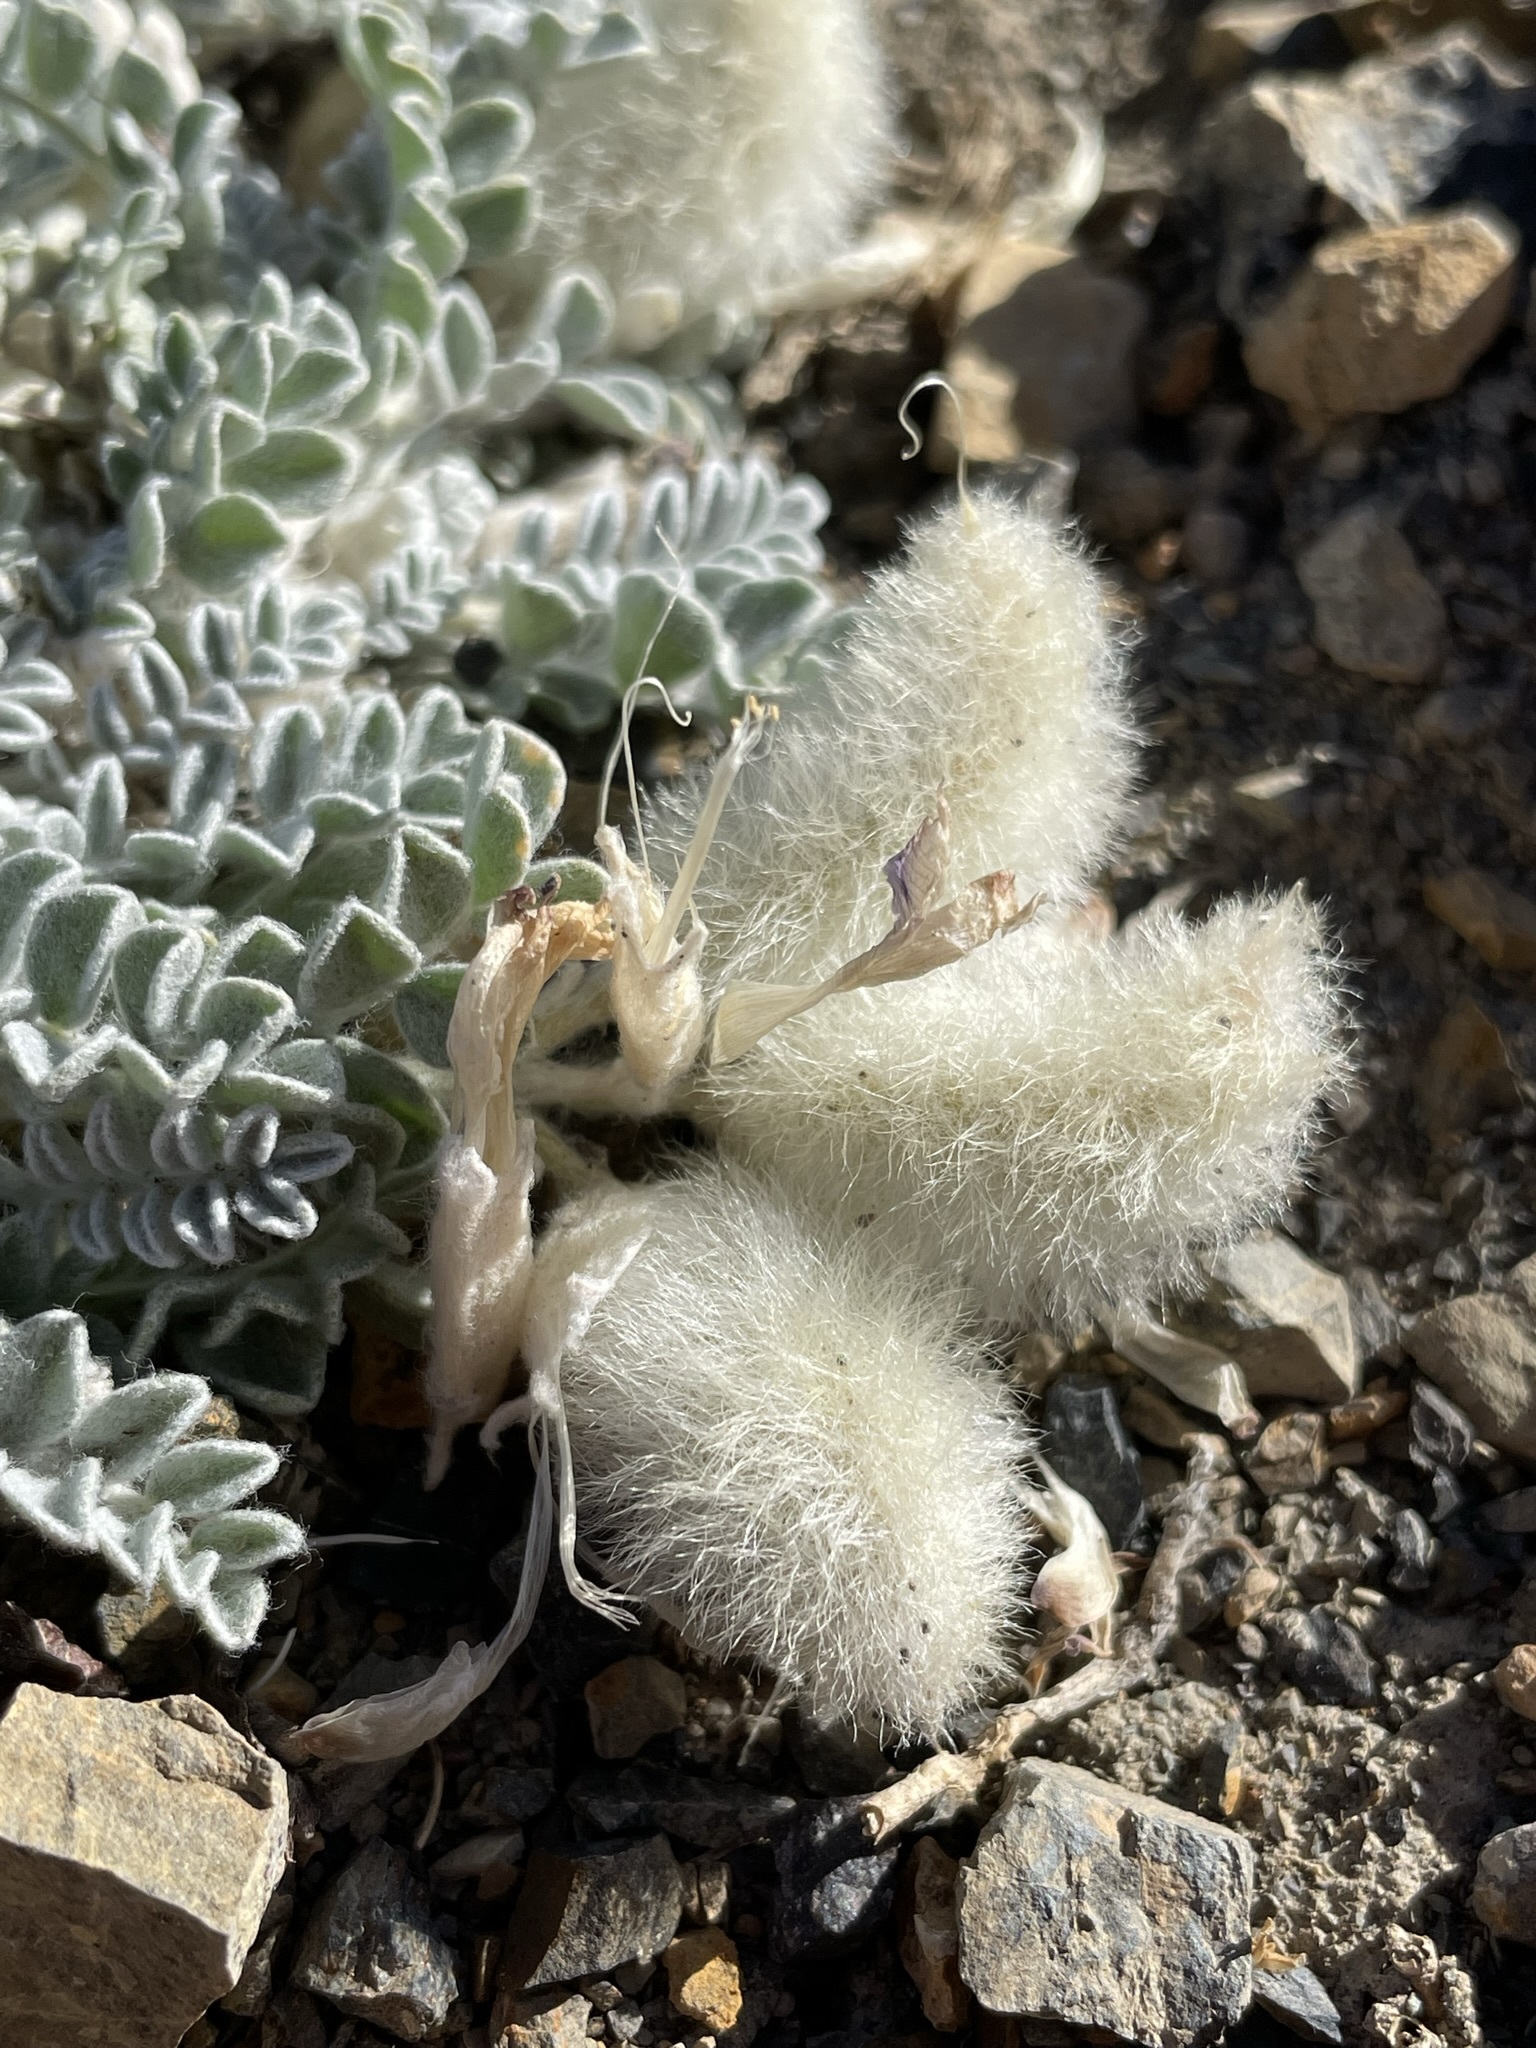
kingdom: Plantae
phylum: Tracheophyta
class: Magnoliopsida
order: Fabales
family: Fabaceae
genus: Astragalus
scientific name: Astragalus purshii
